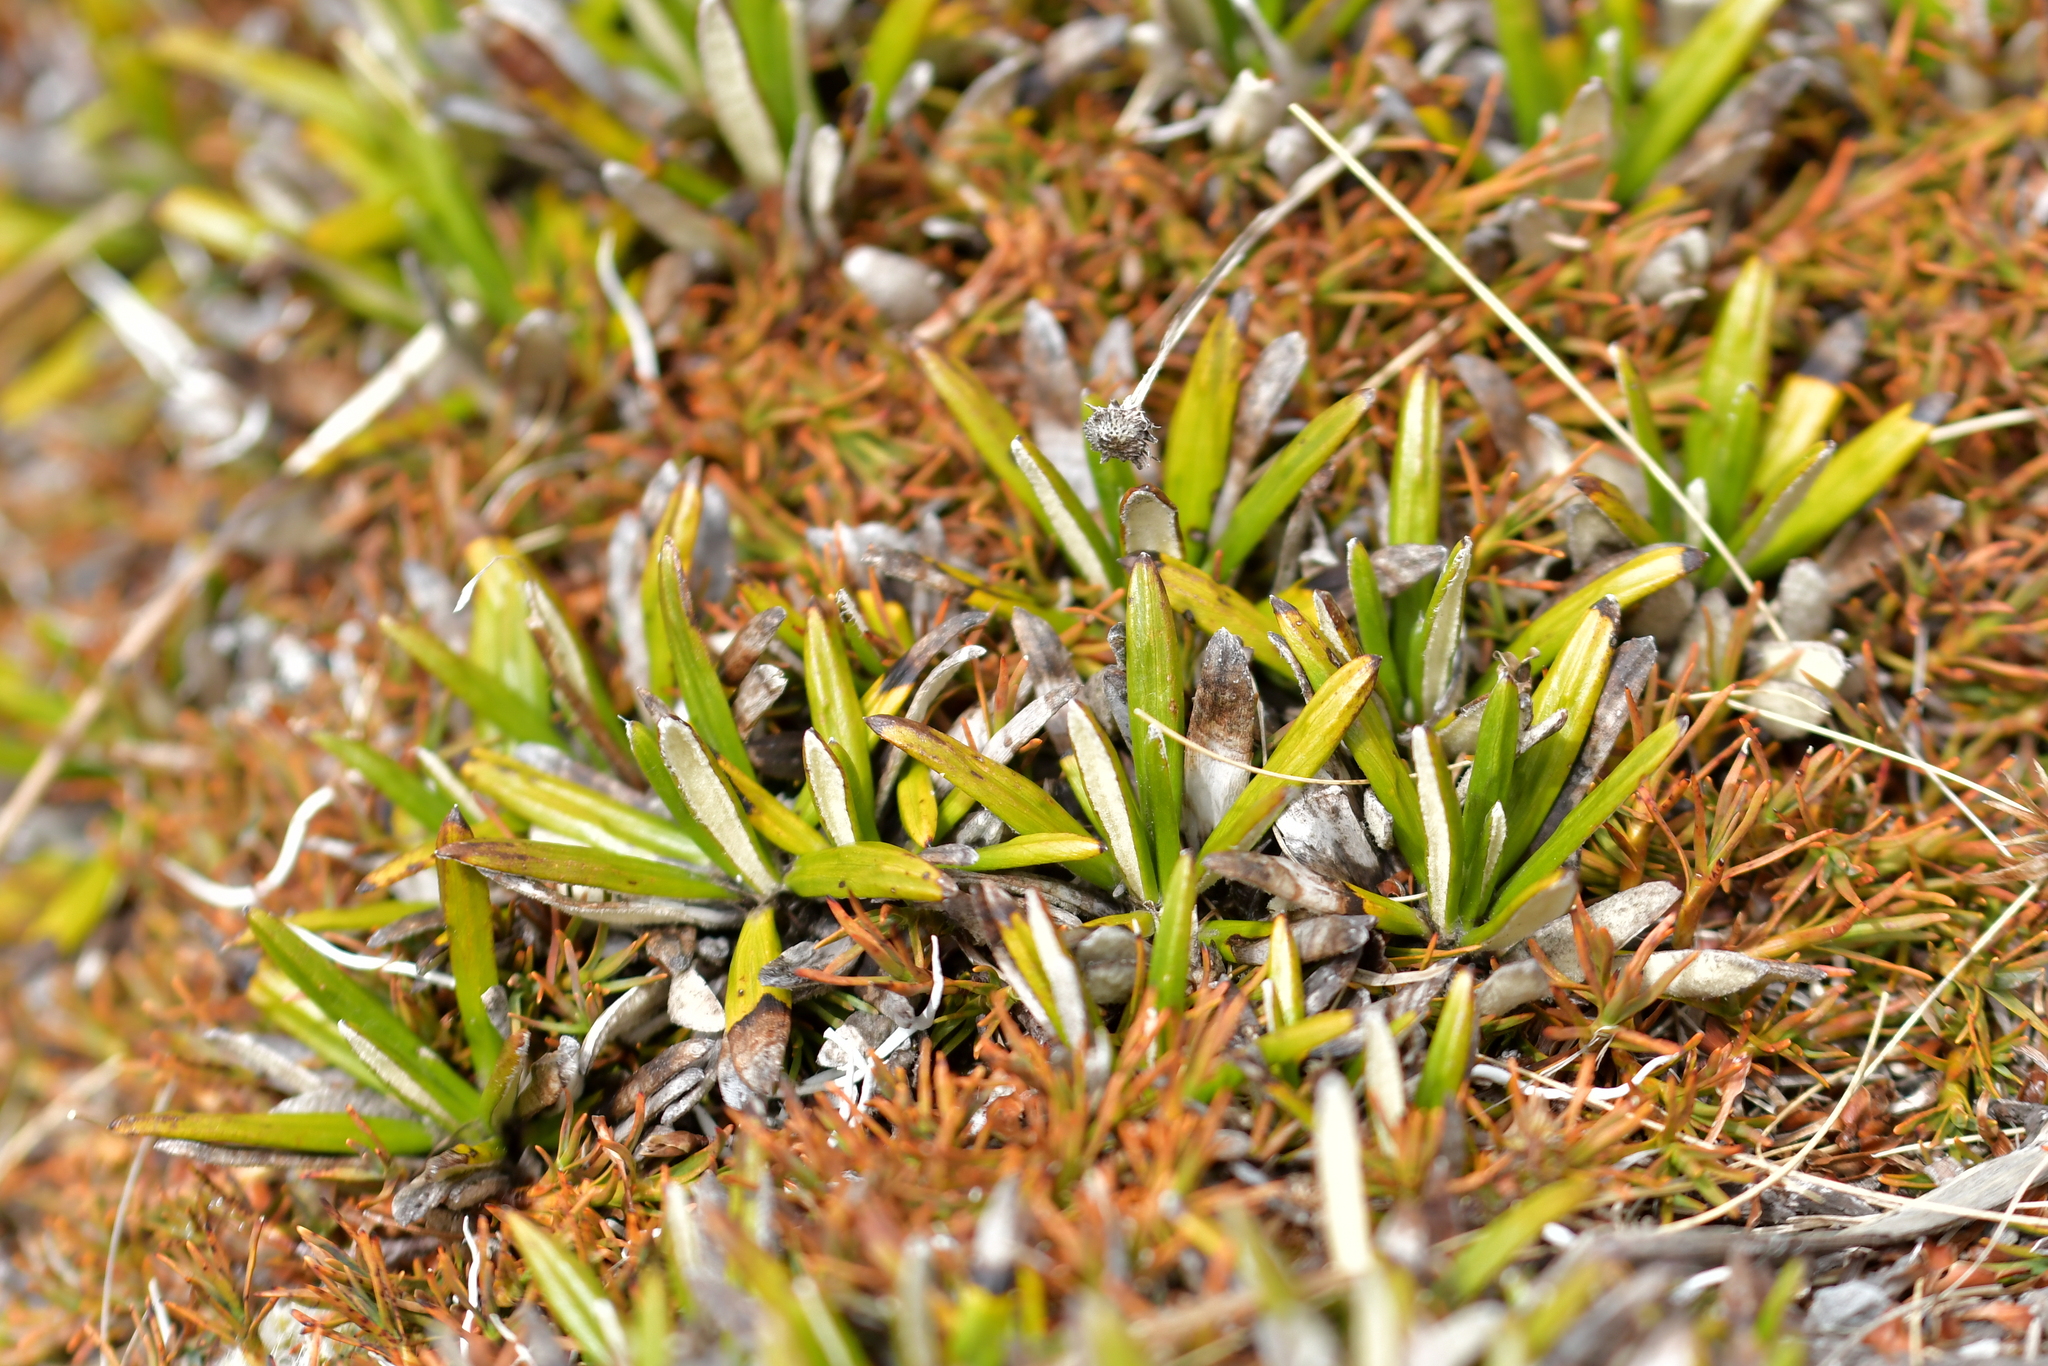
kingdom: Plantae
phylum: Tracheophyta
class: Magnoliopsida
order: Asterales
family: Asteraceae
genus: Celmisia
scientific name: Celmisia spectabilis
